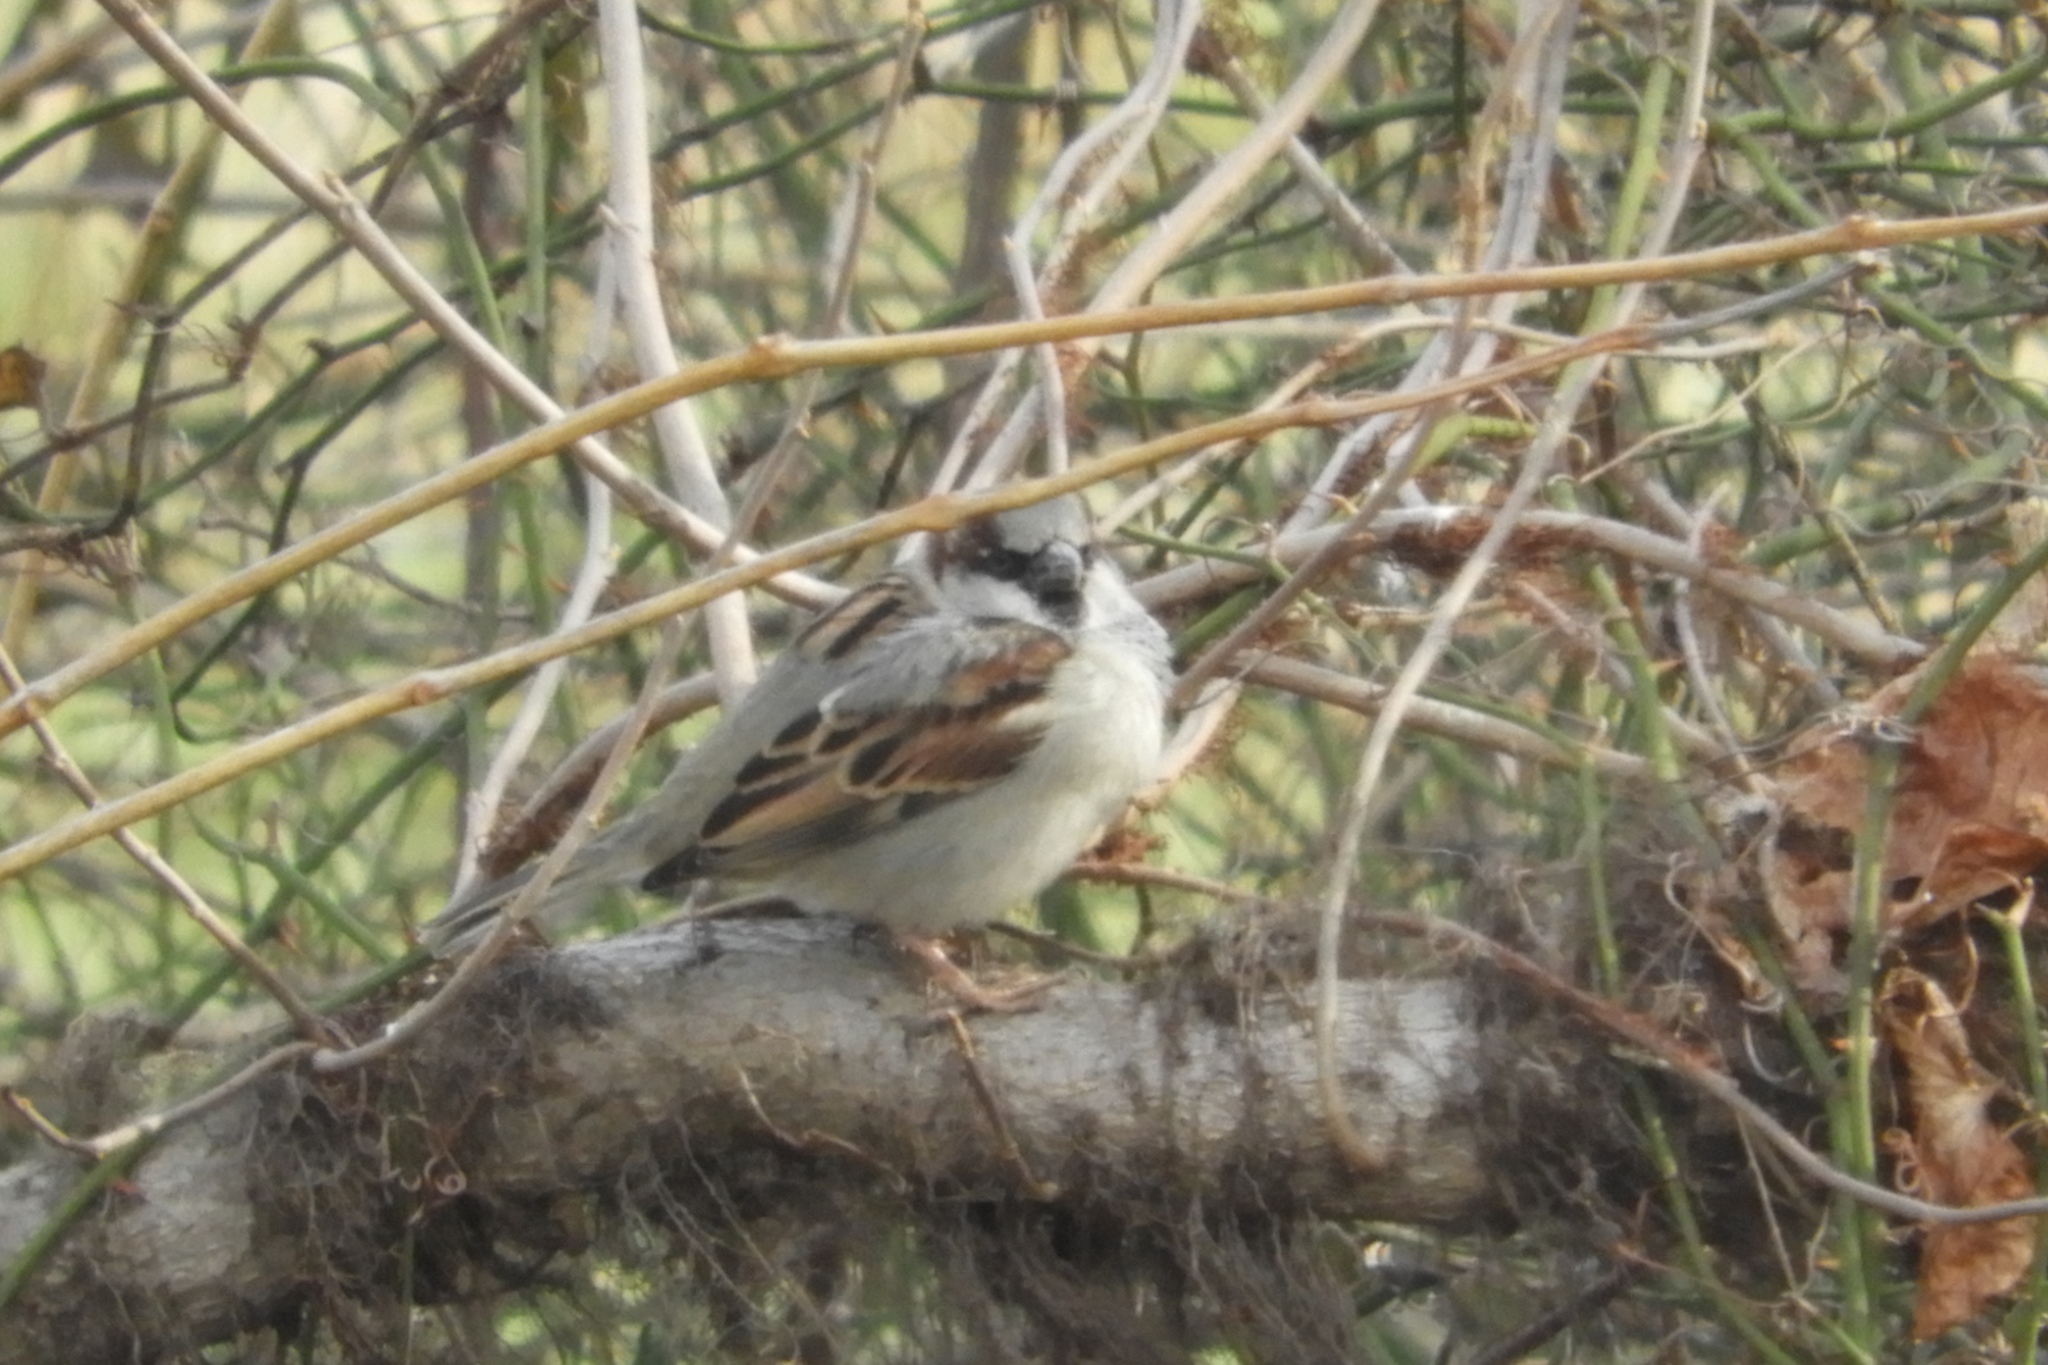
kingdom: Animalia
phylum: Chordata
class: Aves
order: Passeriformes
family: Passeridae
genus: Passer
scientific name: Passer domesticus
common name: House sparrow
